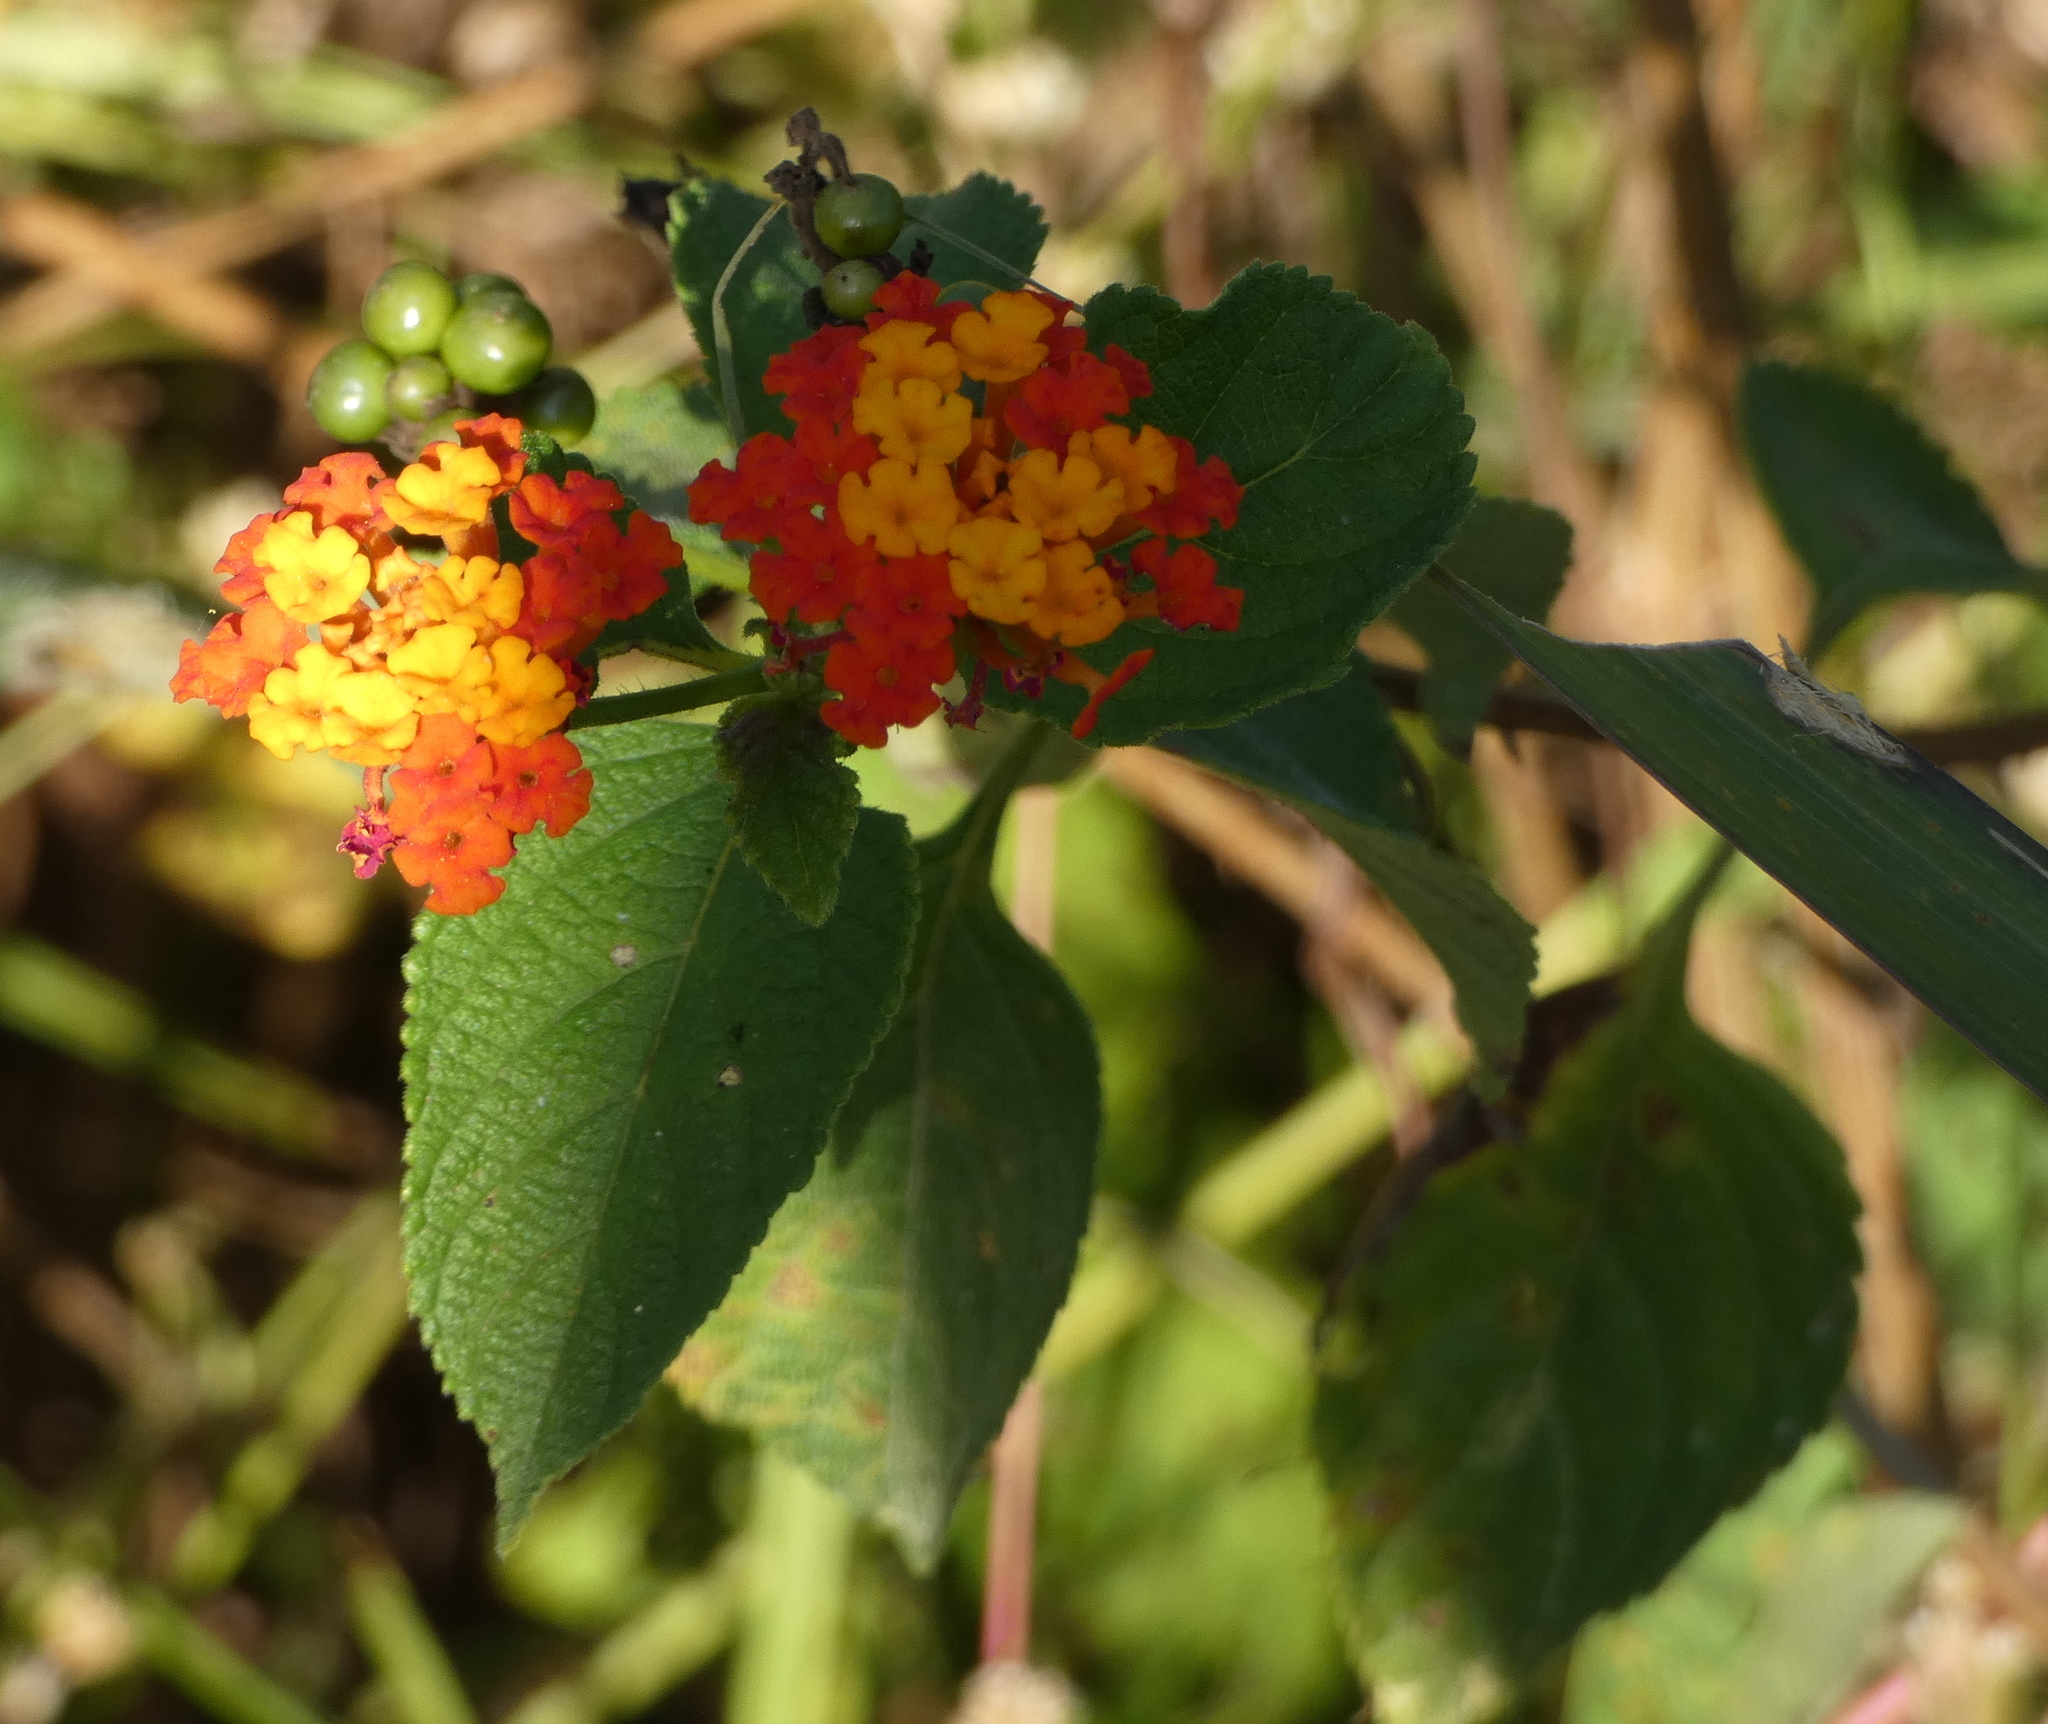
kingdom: Plantae
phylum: Tracheophyta
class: Magnoliopsida
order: Lamiales
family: Verbenaceae
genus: Lantana
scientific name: Lantana camara
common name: Lantana
